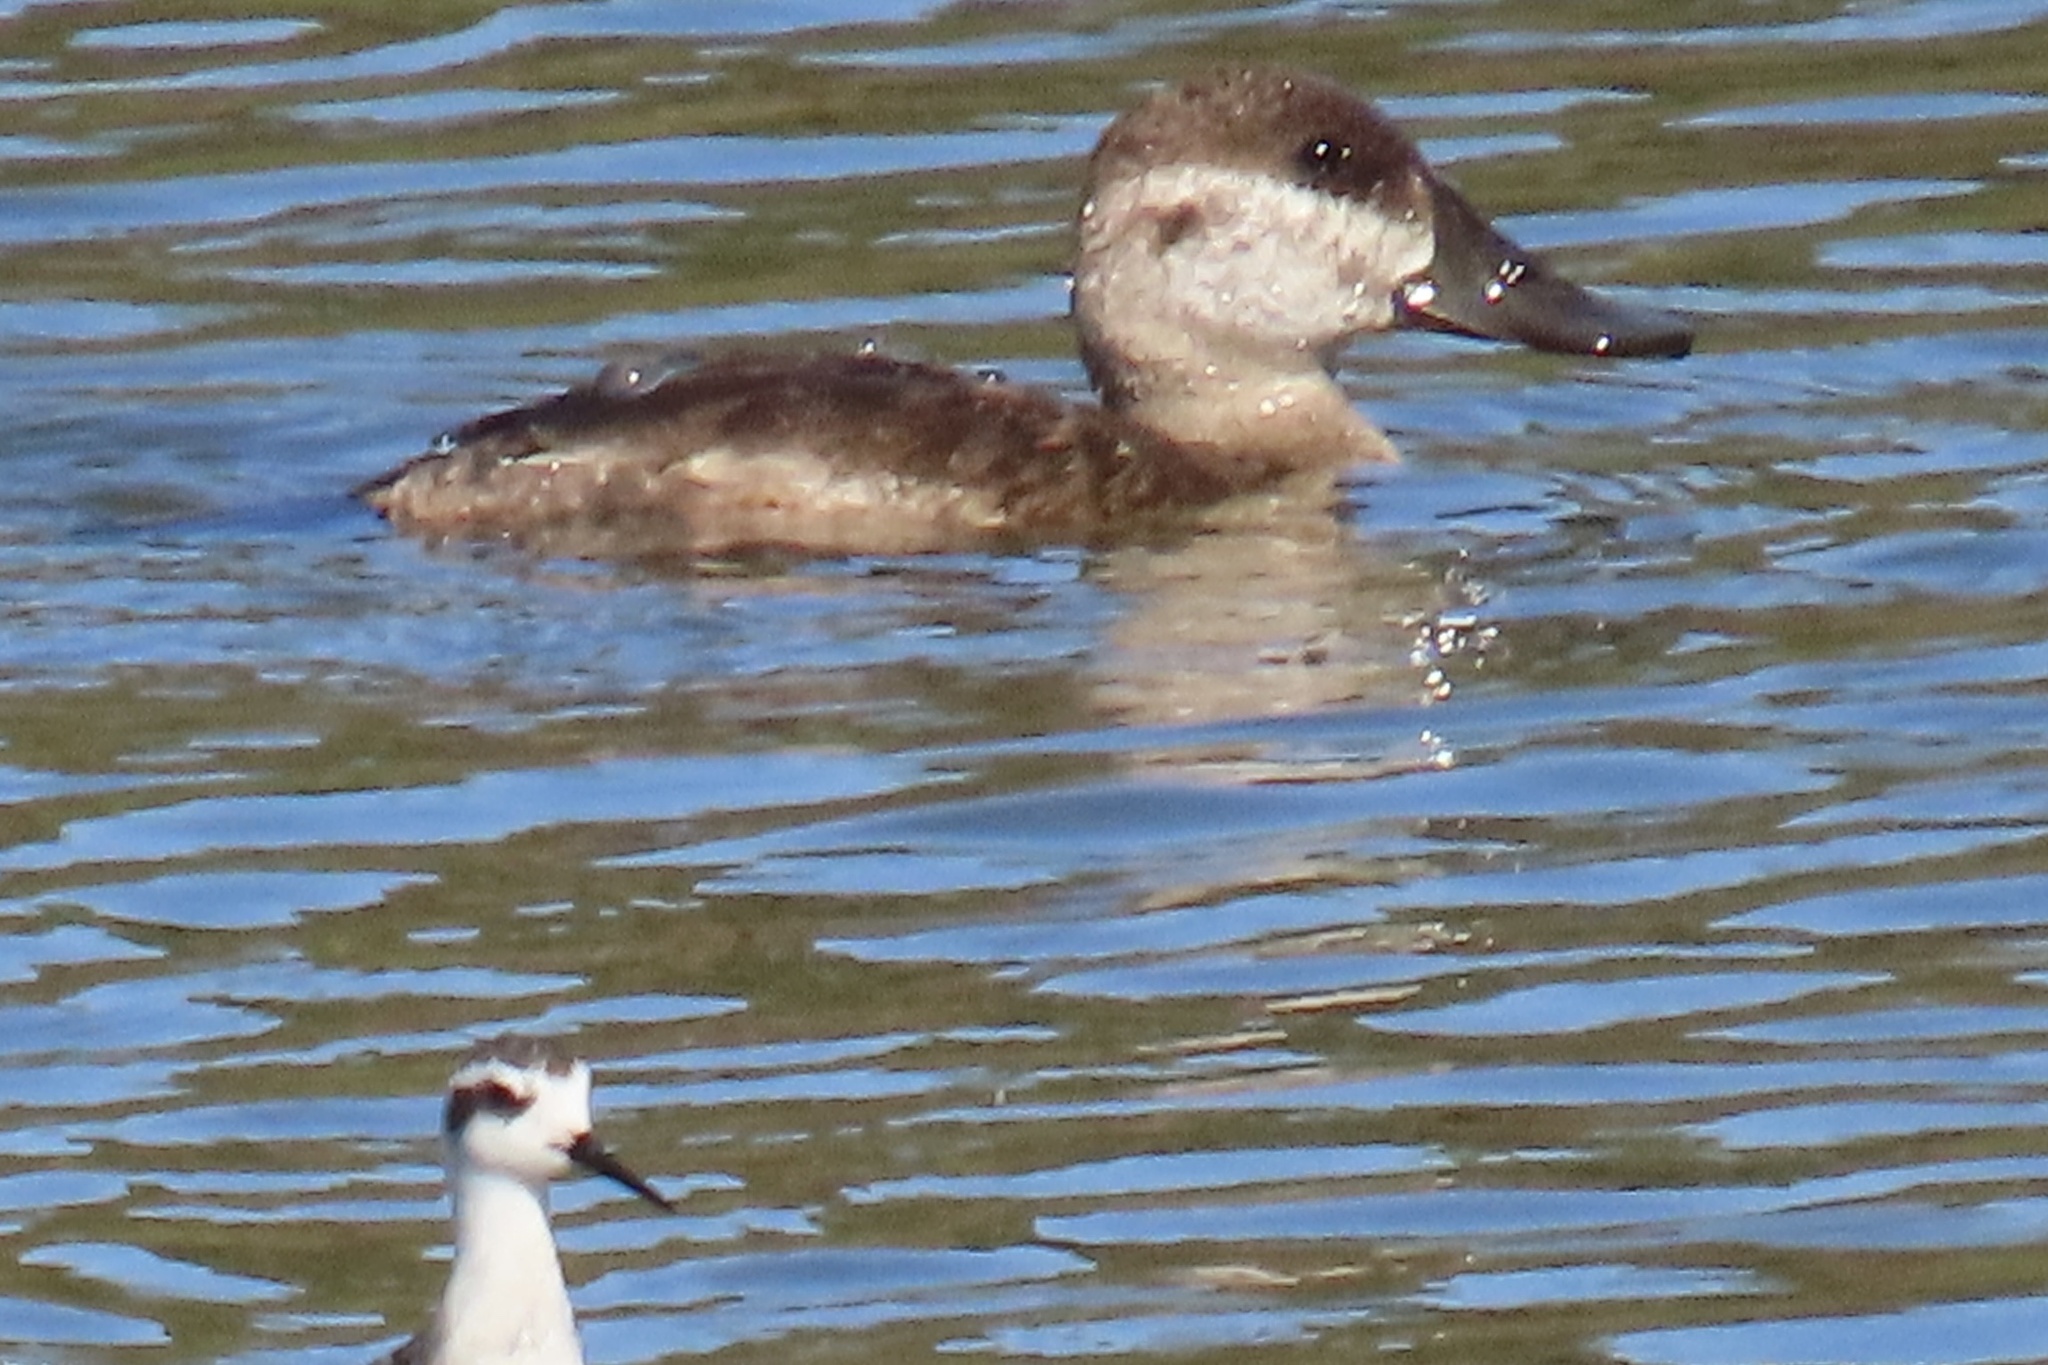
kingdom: Animalia
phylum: Chordata
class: Aves
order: Anseriformes
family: Anatidae
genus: Oxyura
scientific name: Oxyura jamaicensis
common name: Ruddy duck
